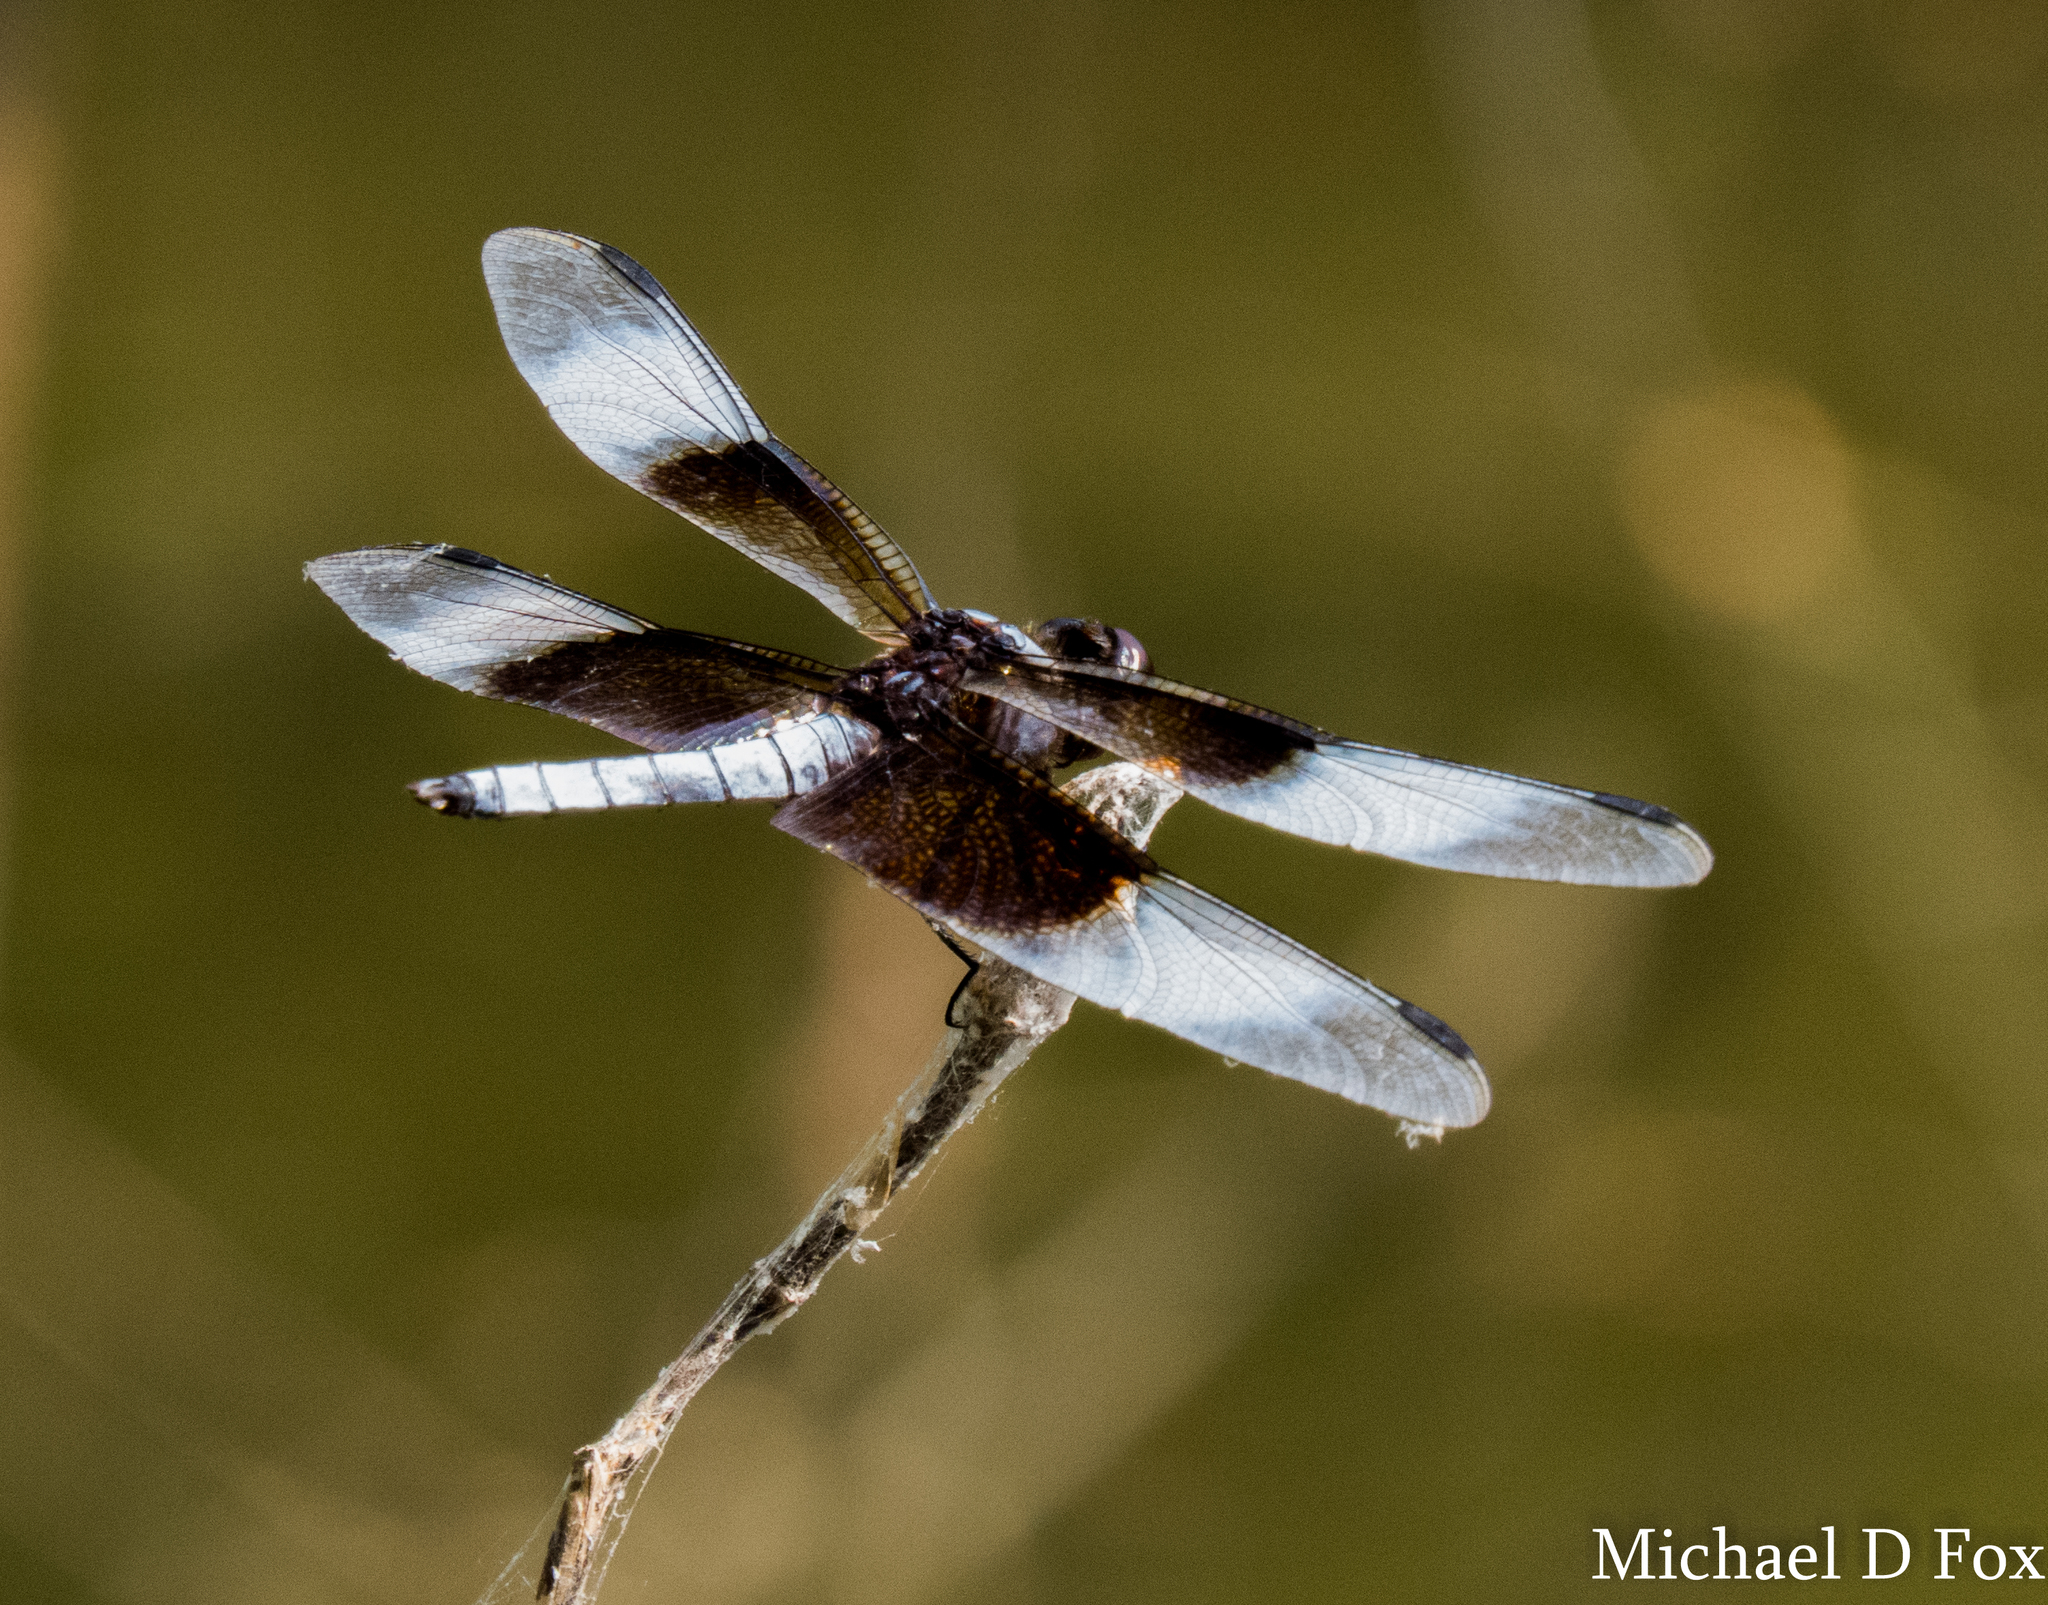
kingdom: Animalia
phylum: Arthropoda
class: Insecta
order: Odonata
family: Libellulidae
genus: Libellula
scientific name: Libellula luctuosa
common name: Widow skimmer
